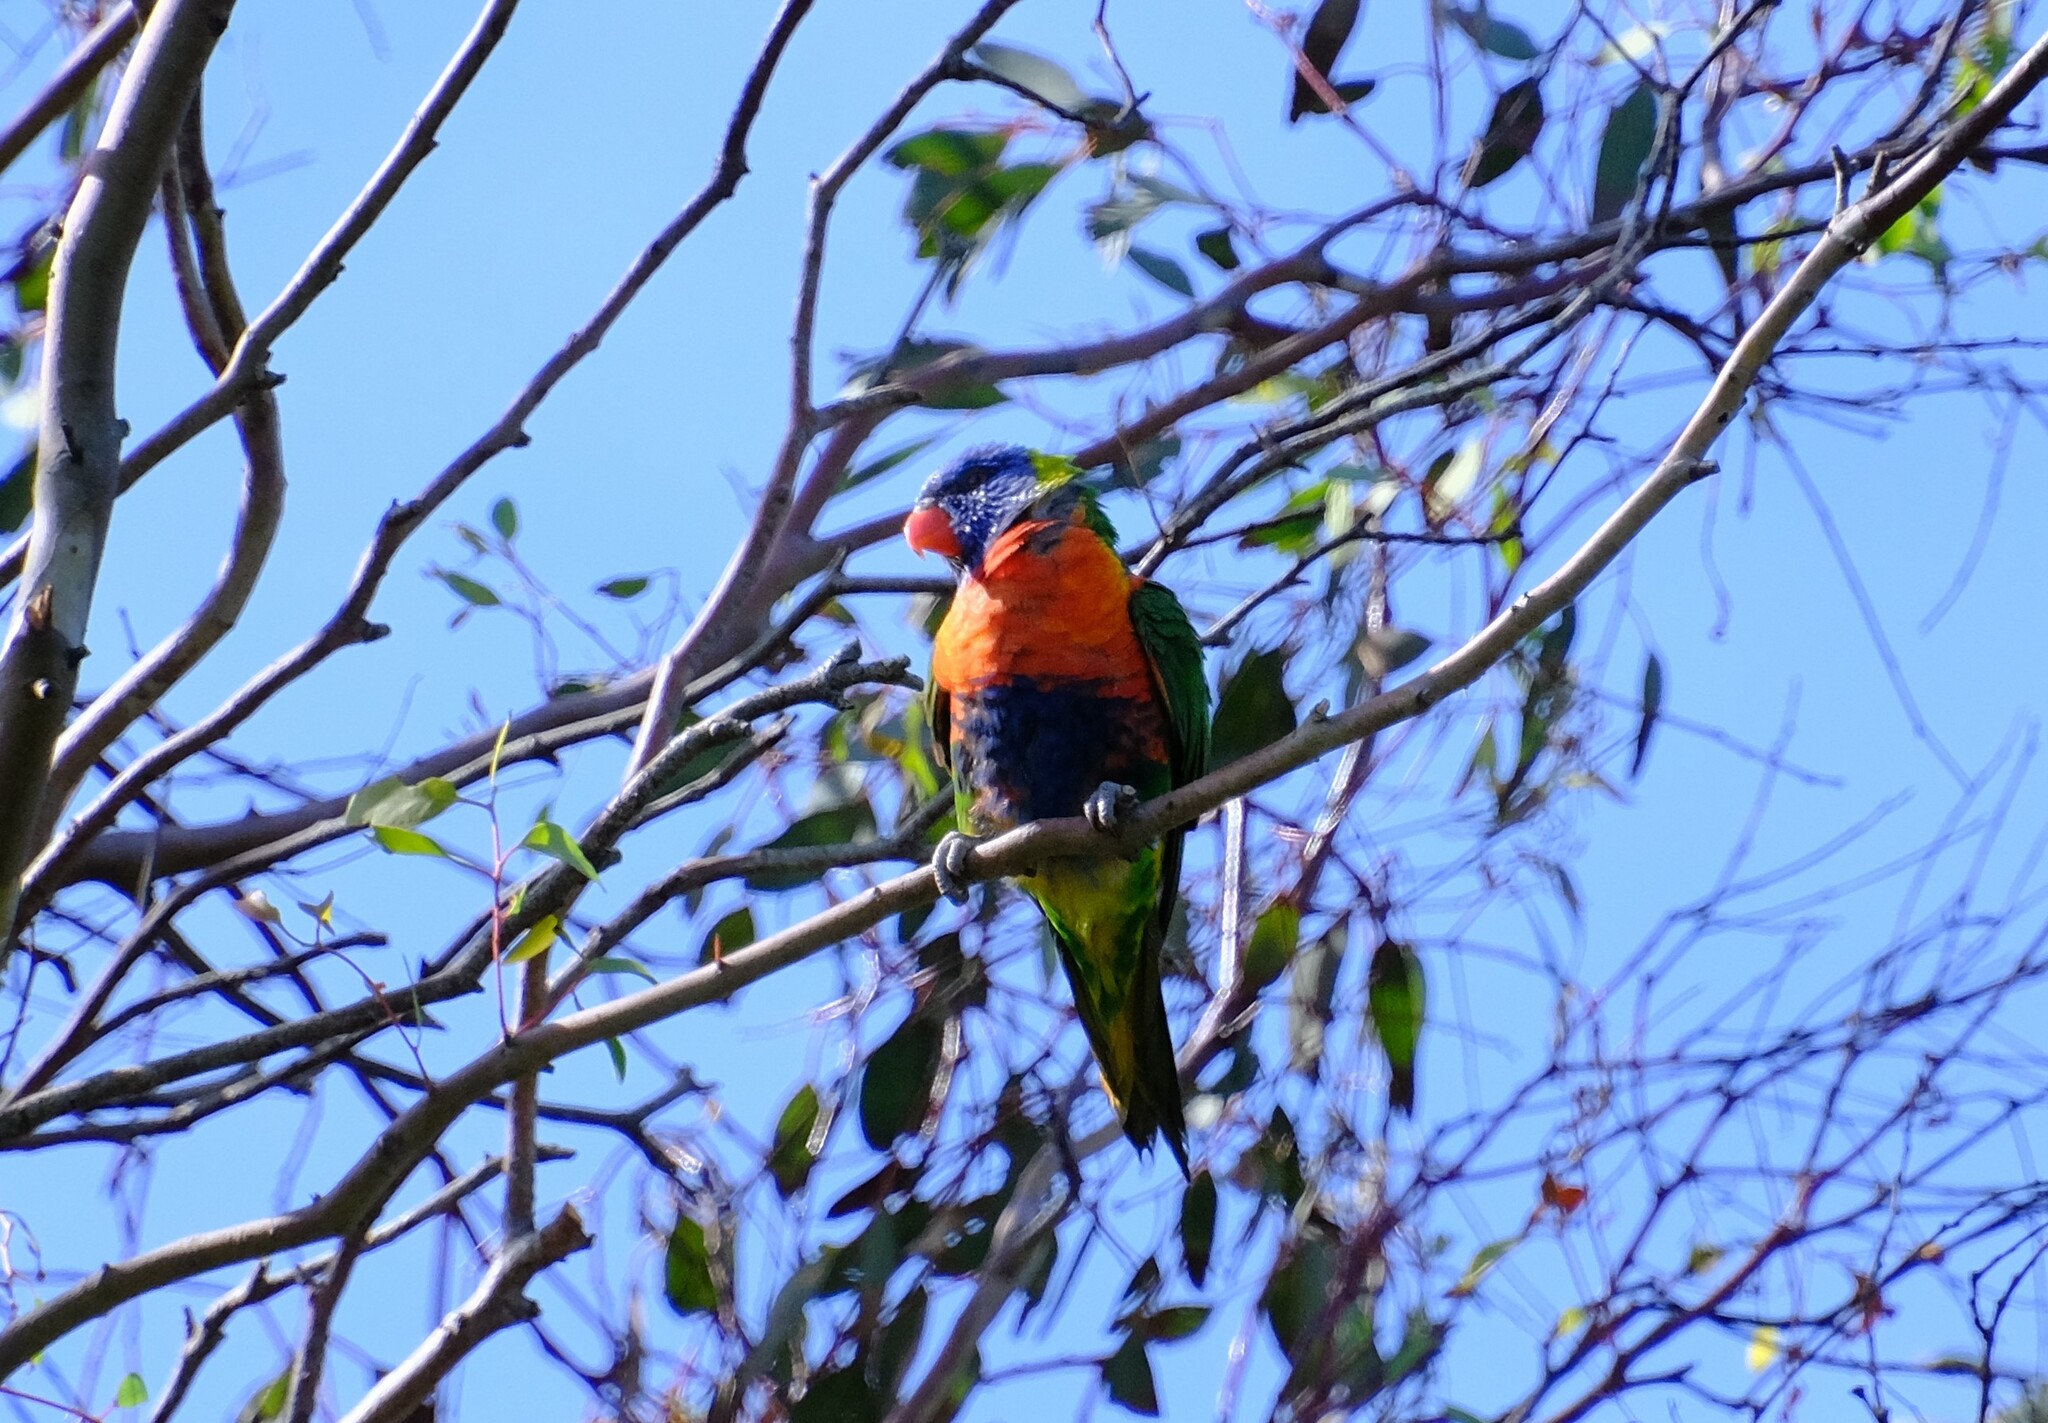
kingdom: Animalia
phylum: Chordata
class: Aves
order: Psittaciformes
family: Psittacidae
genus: Trichoglossus
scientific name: Trichoglossus haematodus
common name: Coconut lorikeet
